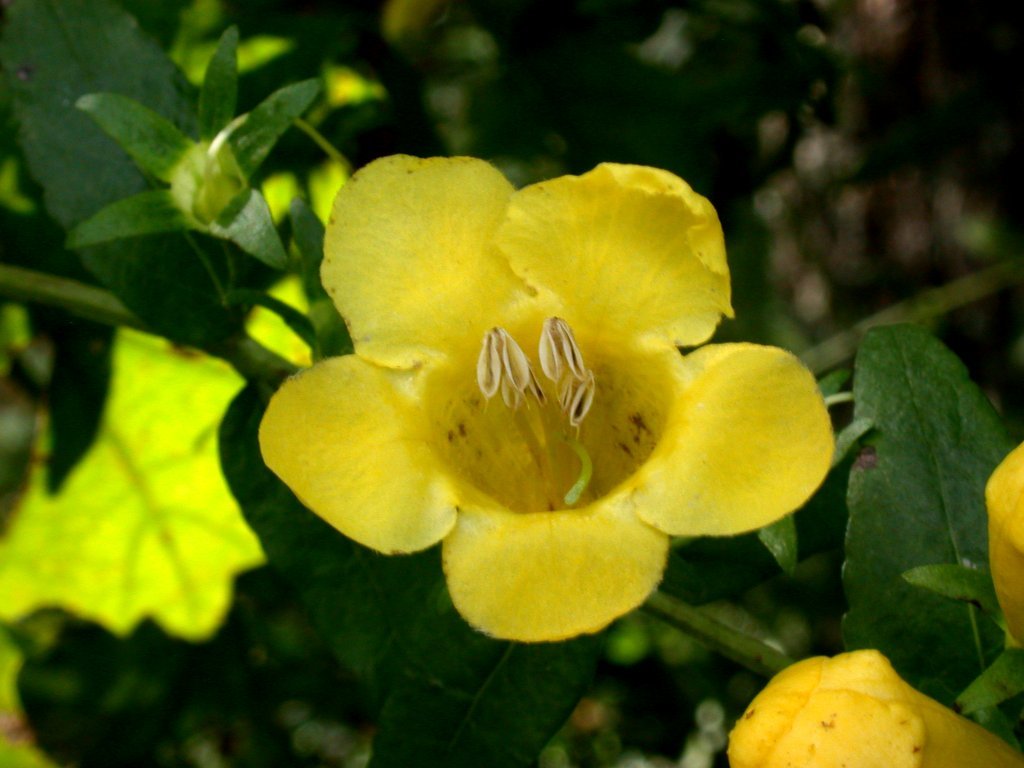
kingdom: Plantae
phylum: Tracheophyta
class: Magnoliopsida
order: Lamiales
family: Orobanchaceae
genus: Aureolaria
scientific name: Aureolaria patula
